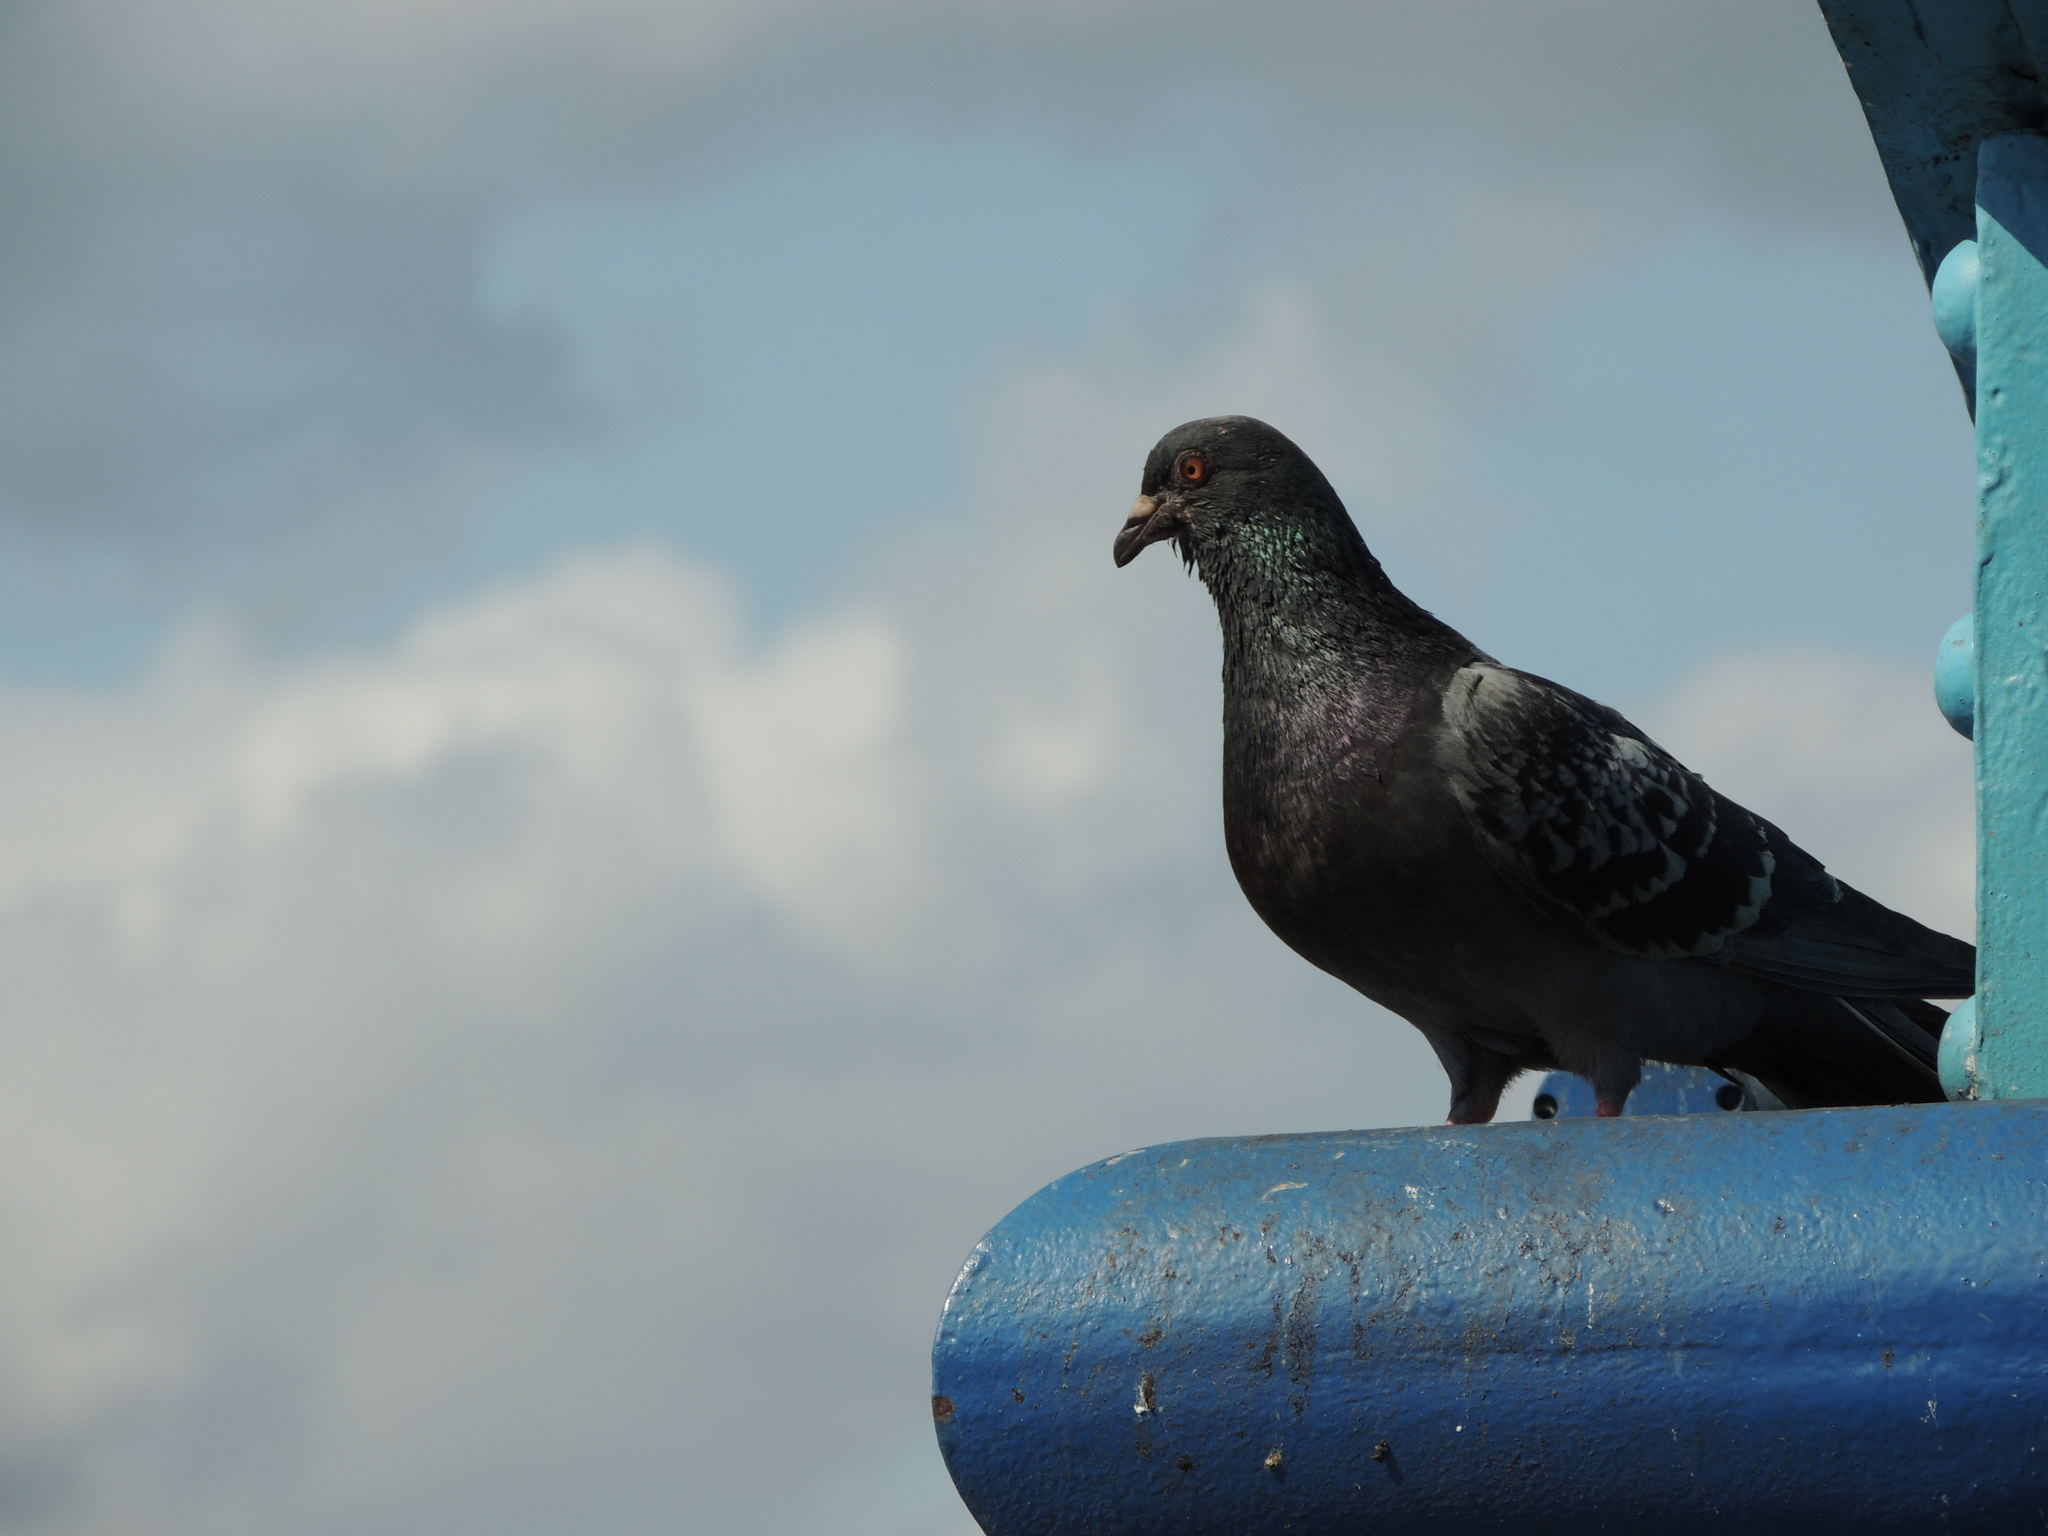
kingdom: Animalia
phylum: Chordata
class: Aves
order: Columbiformes
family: Columbidae
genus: Columba
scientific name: Columba livia
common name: Rock pigeon
